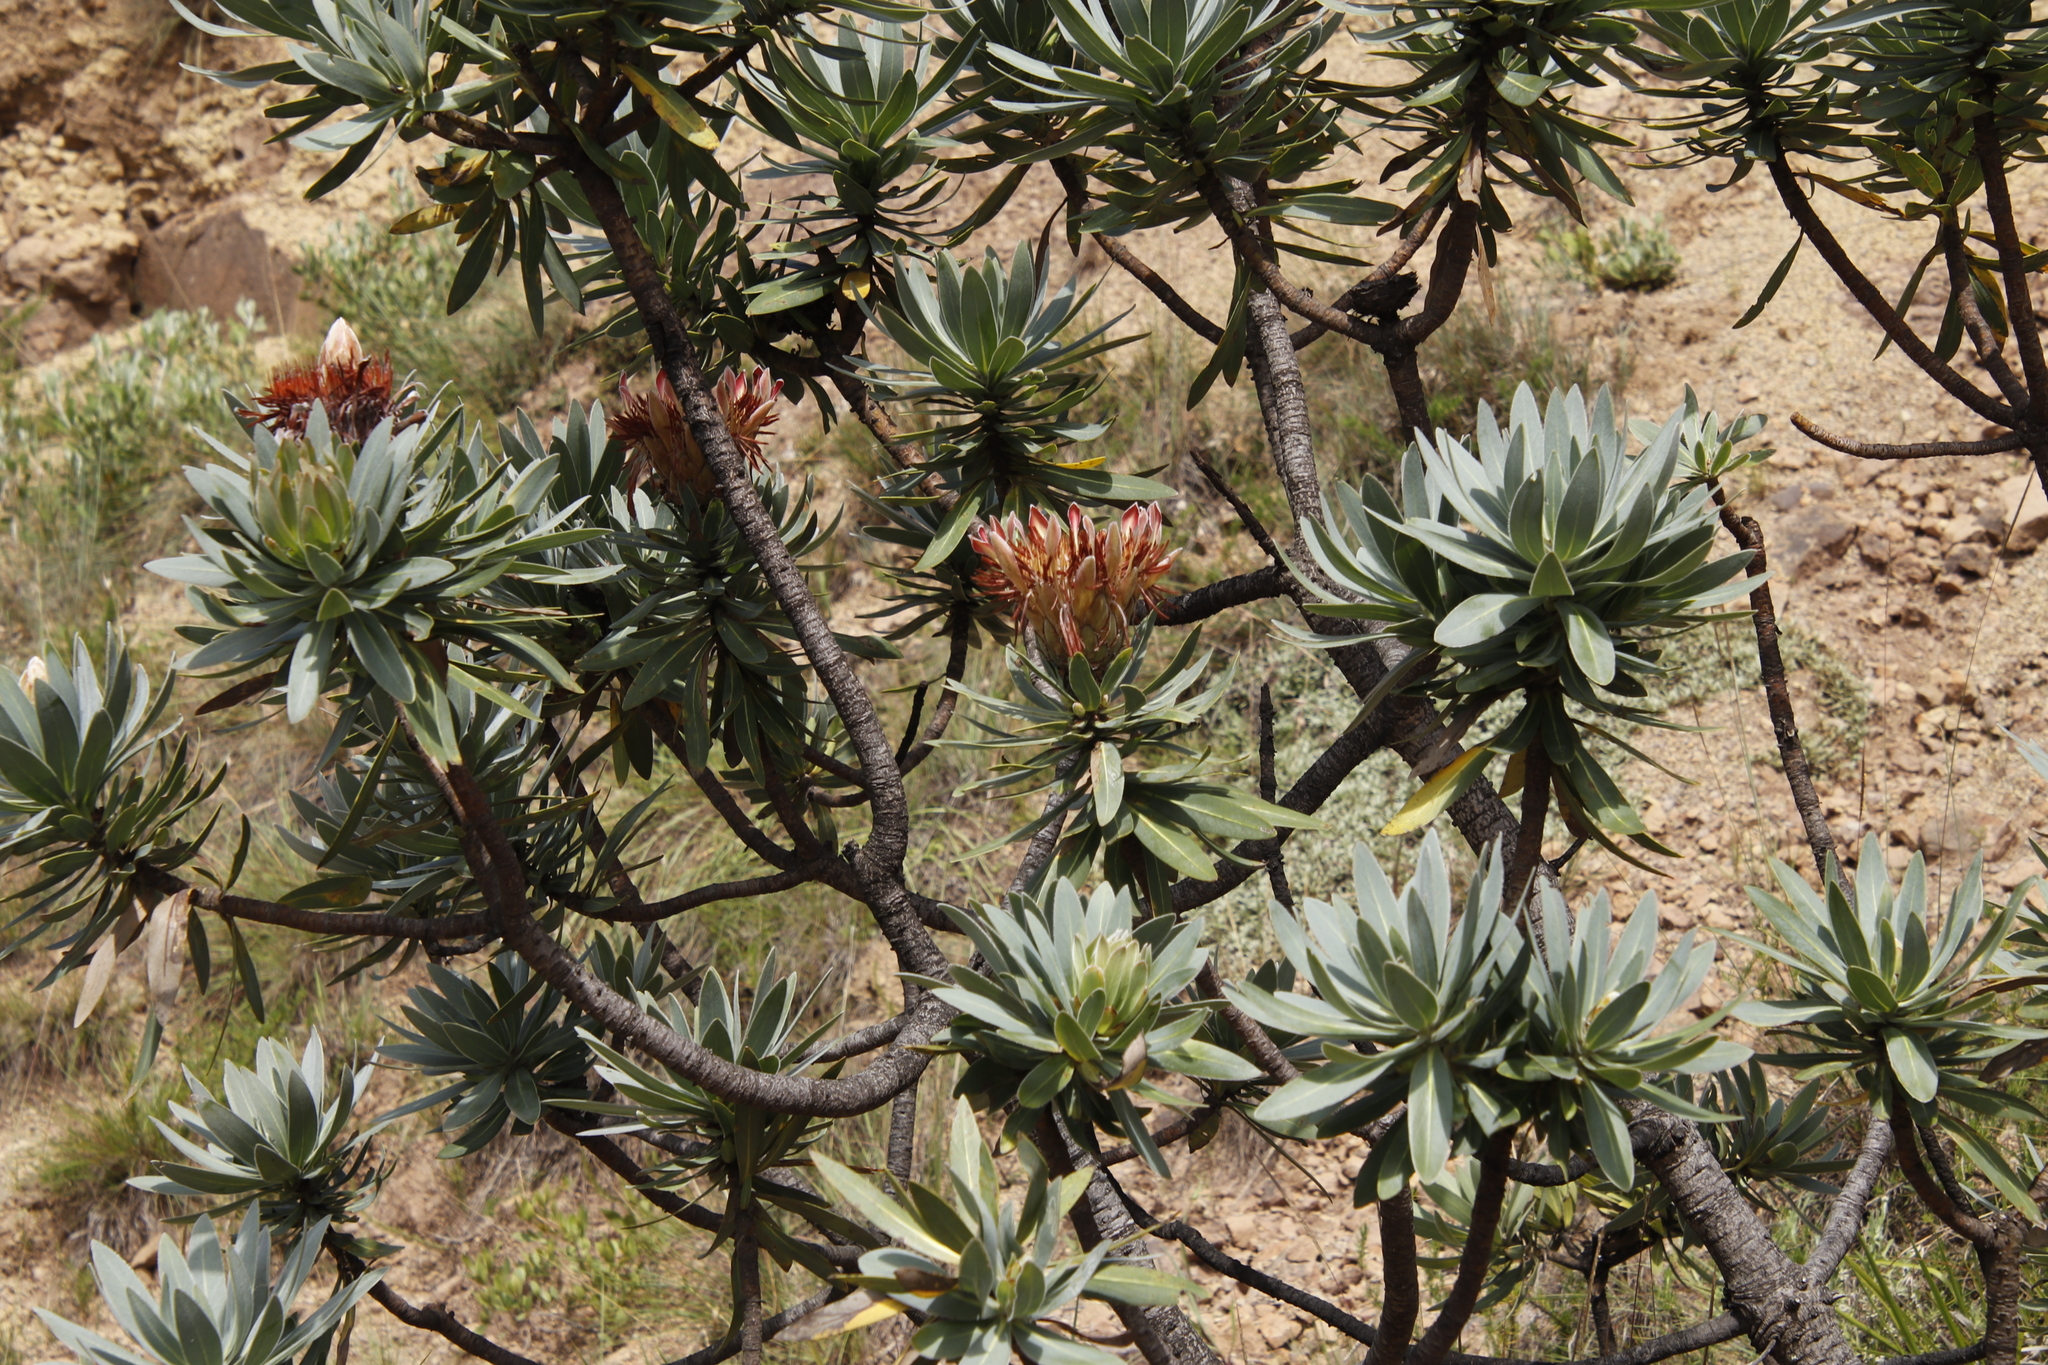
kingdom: Plantae
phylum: Tracheophyta
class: Magnoliopsida
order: Proteales
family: Proteaceae
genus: Protea
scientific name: Protea roupelliae
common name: Silver sugarbush
